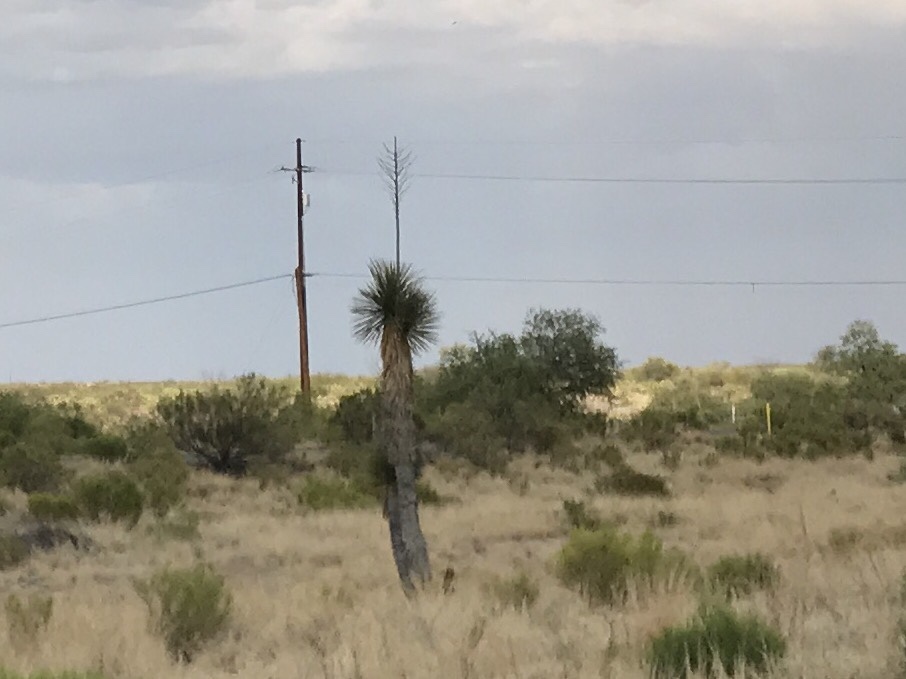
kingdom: Plantae
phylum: Tracheophyta
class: Liliopsida
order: Asparagales
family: Asparagaceae
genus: Yucca
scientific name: Yucca elata
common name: Palmella
